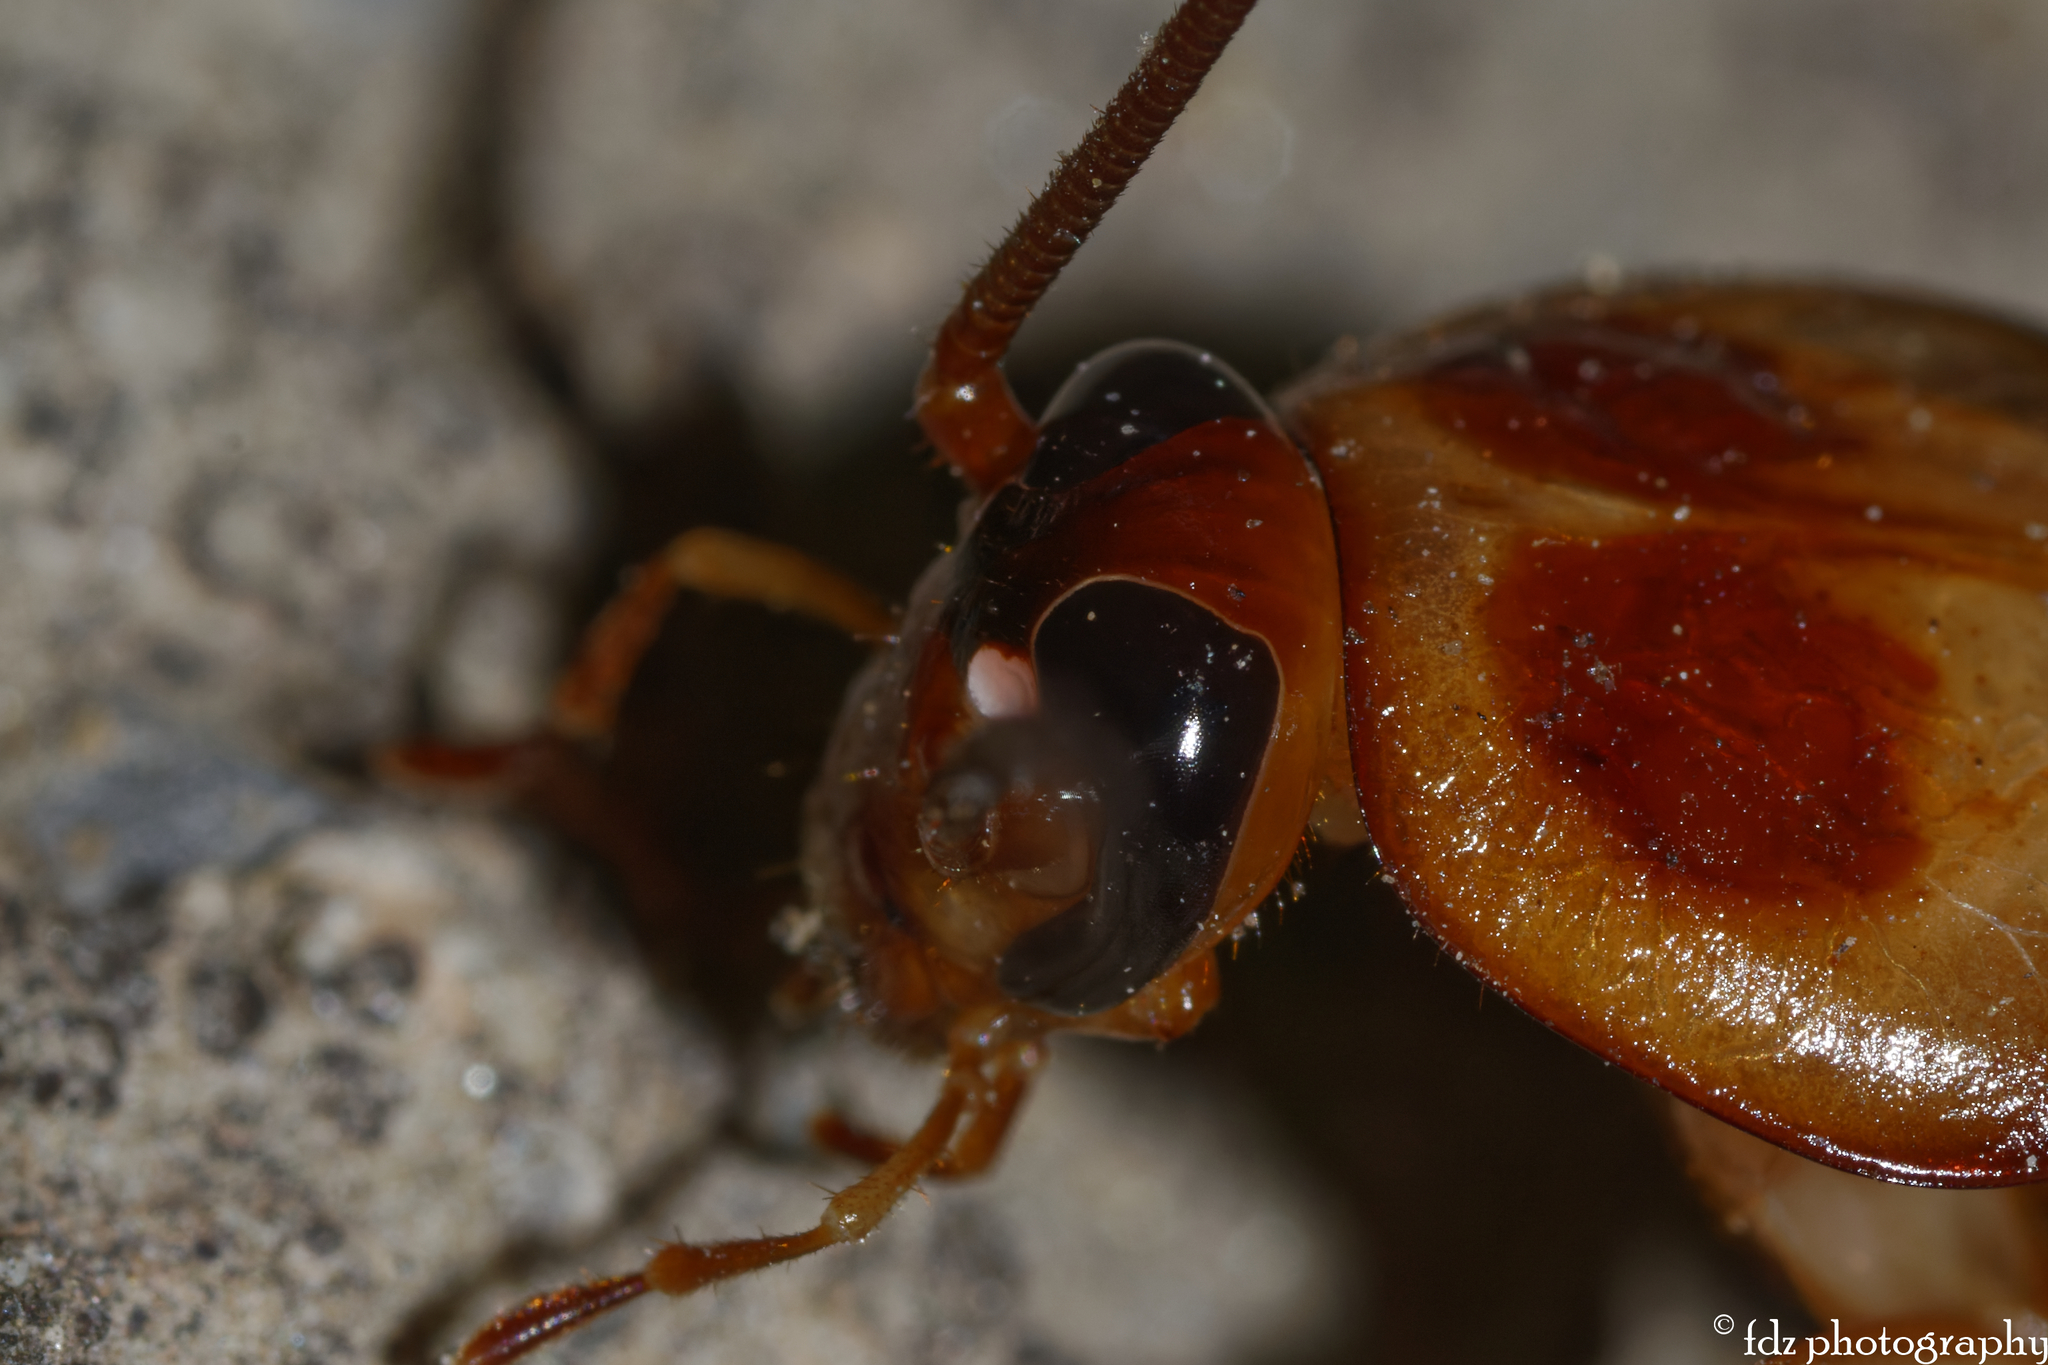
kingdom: Animalia
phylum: Arthropoda
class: Insecta
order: Blattodea
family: Blattidae
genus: Periplaneta
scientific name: Periplaneta americana
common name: American cockroach
